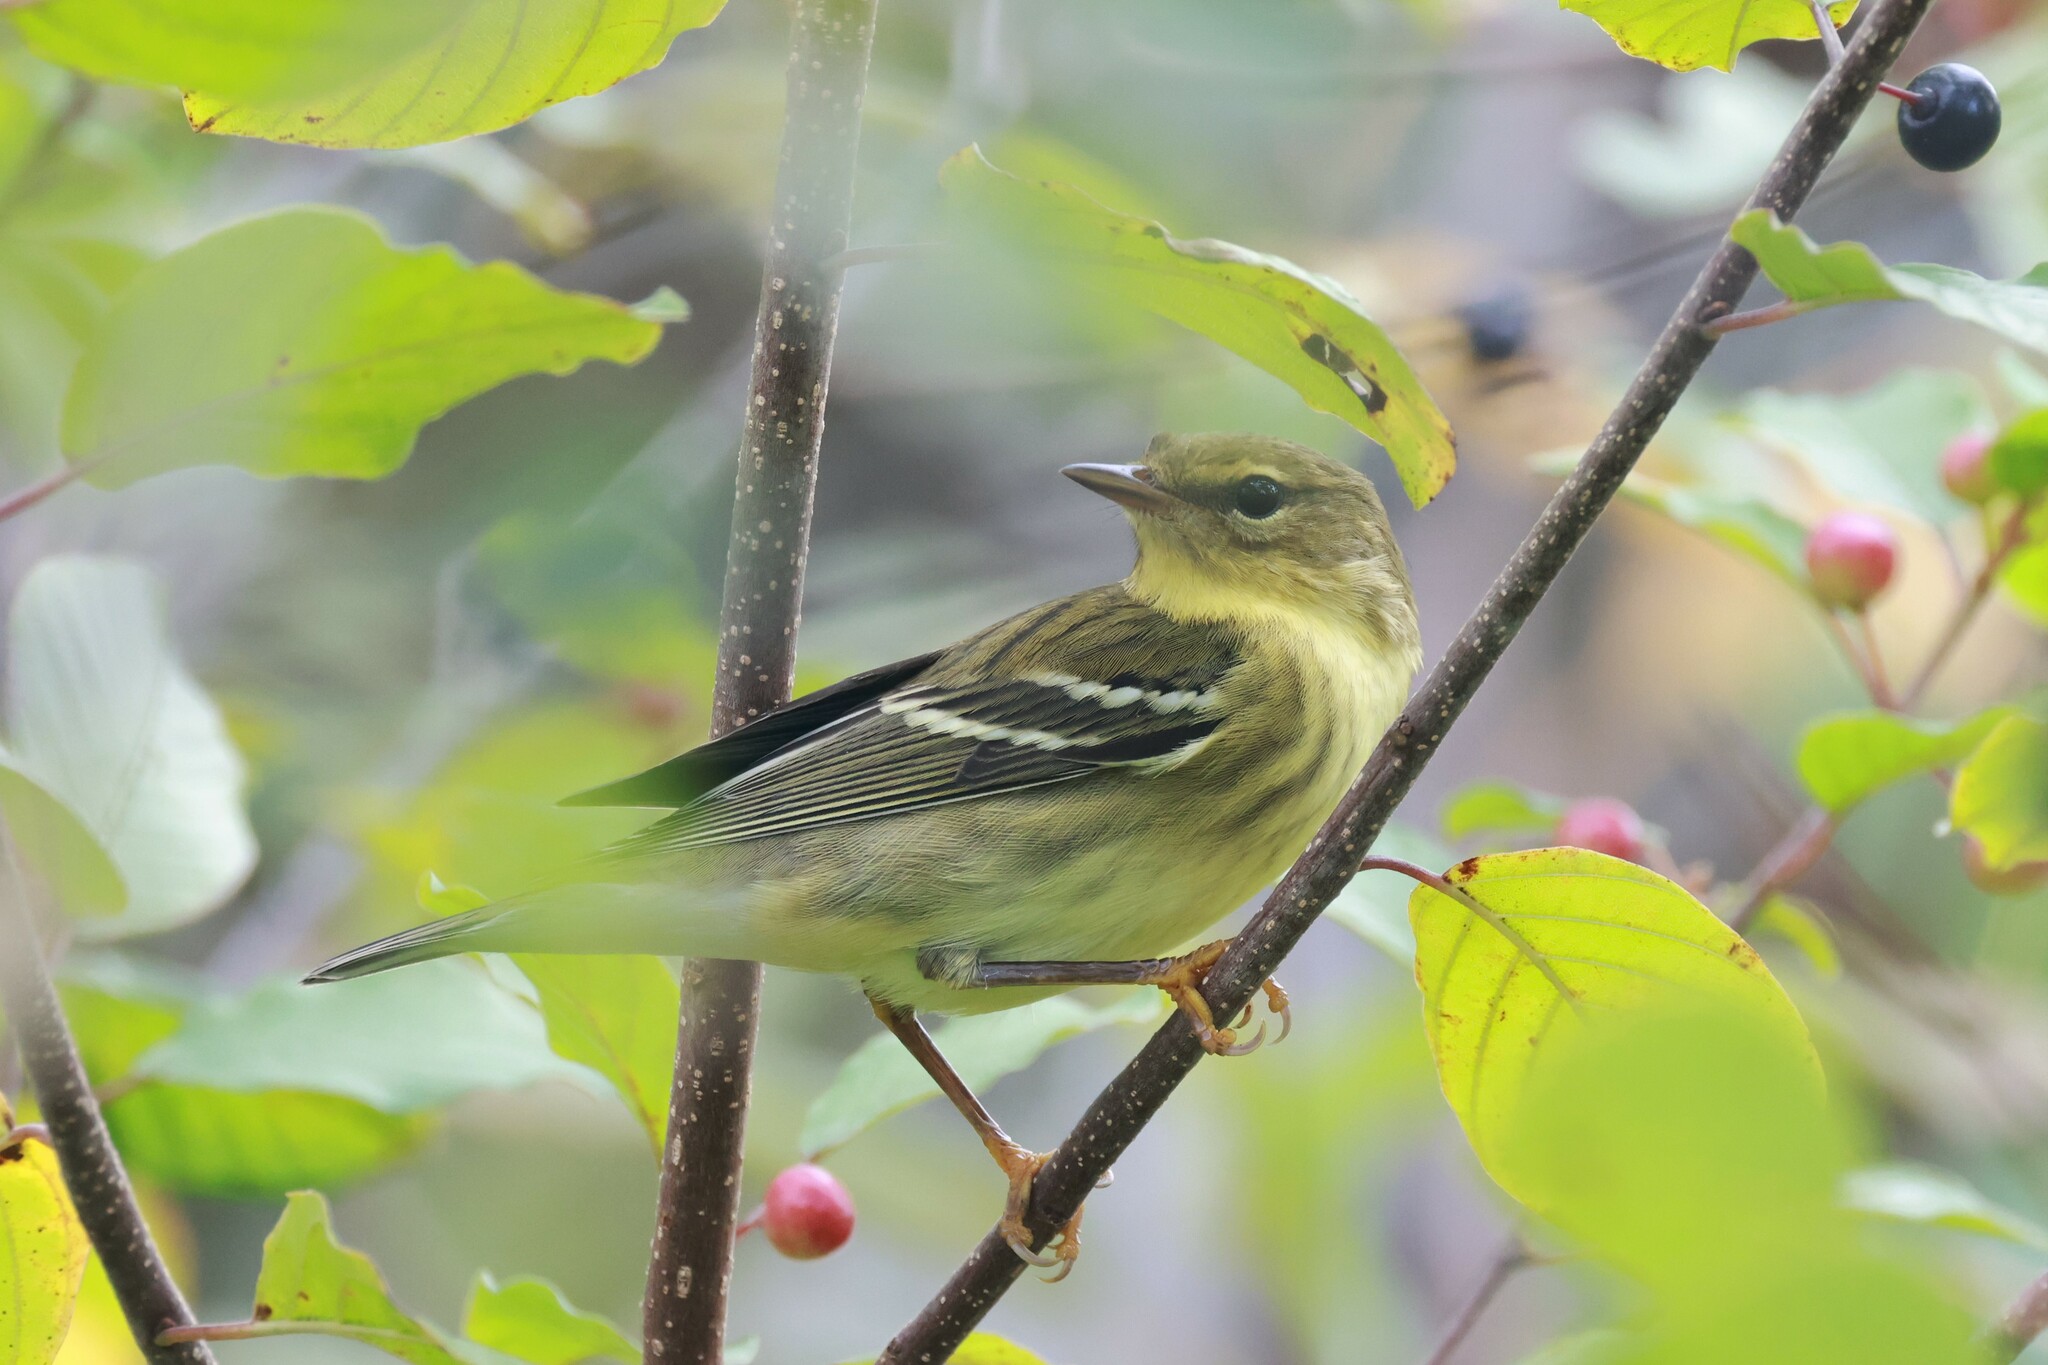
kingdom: Animalia
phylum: Chordata
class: Aves
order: Passeriformes
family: Parulidae
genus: Setophaga
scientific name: Setophaga striata
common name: Blackpoll warbler
